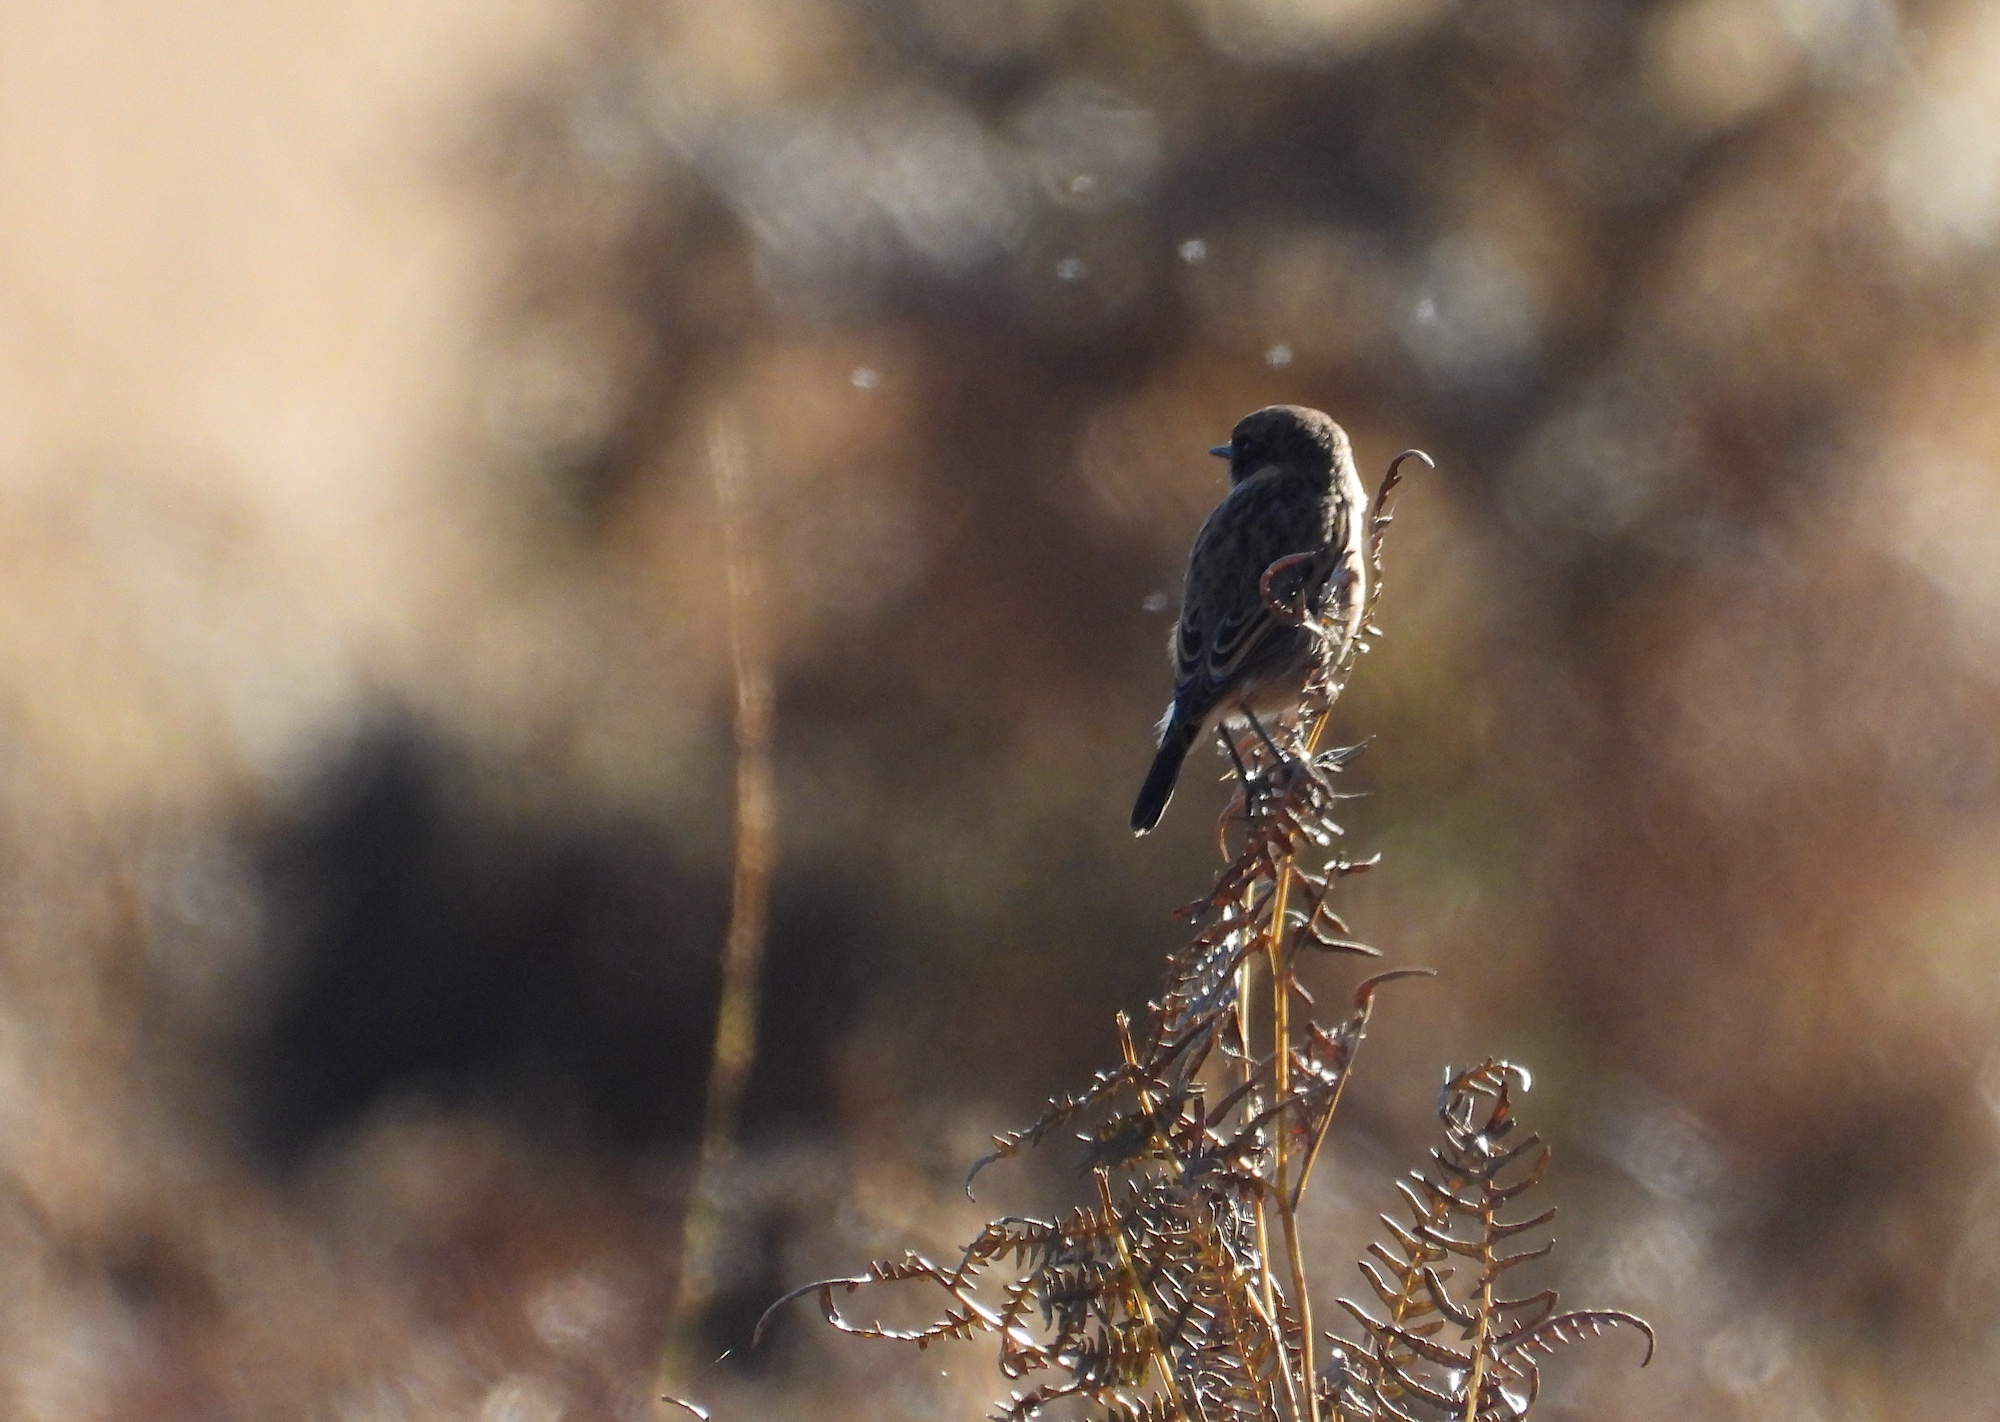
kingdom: Animalia
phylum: Chordata
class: Aves
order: Passeriformes
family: Muscicapidae
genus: Saxicola
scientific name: Saxicola rubicola
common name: European stonechat
